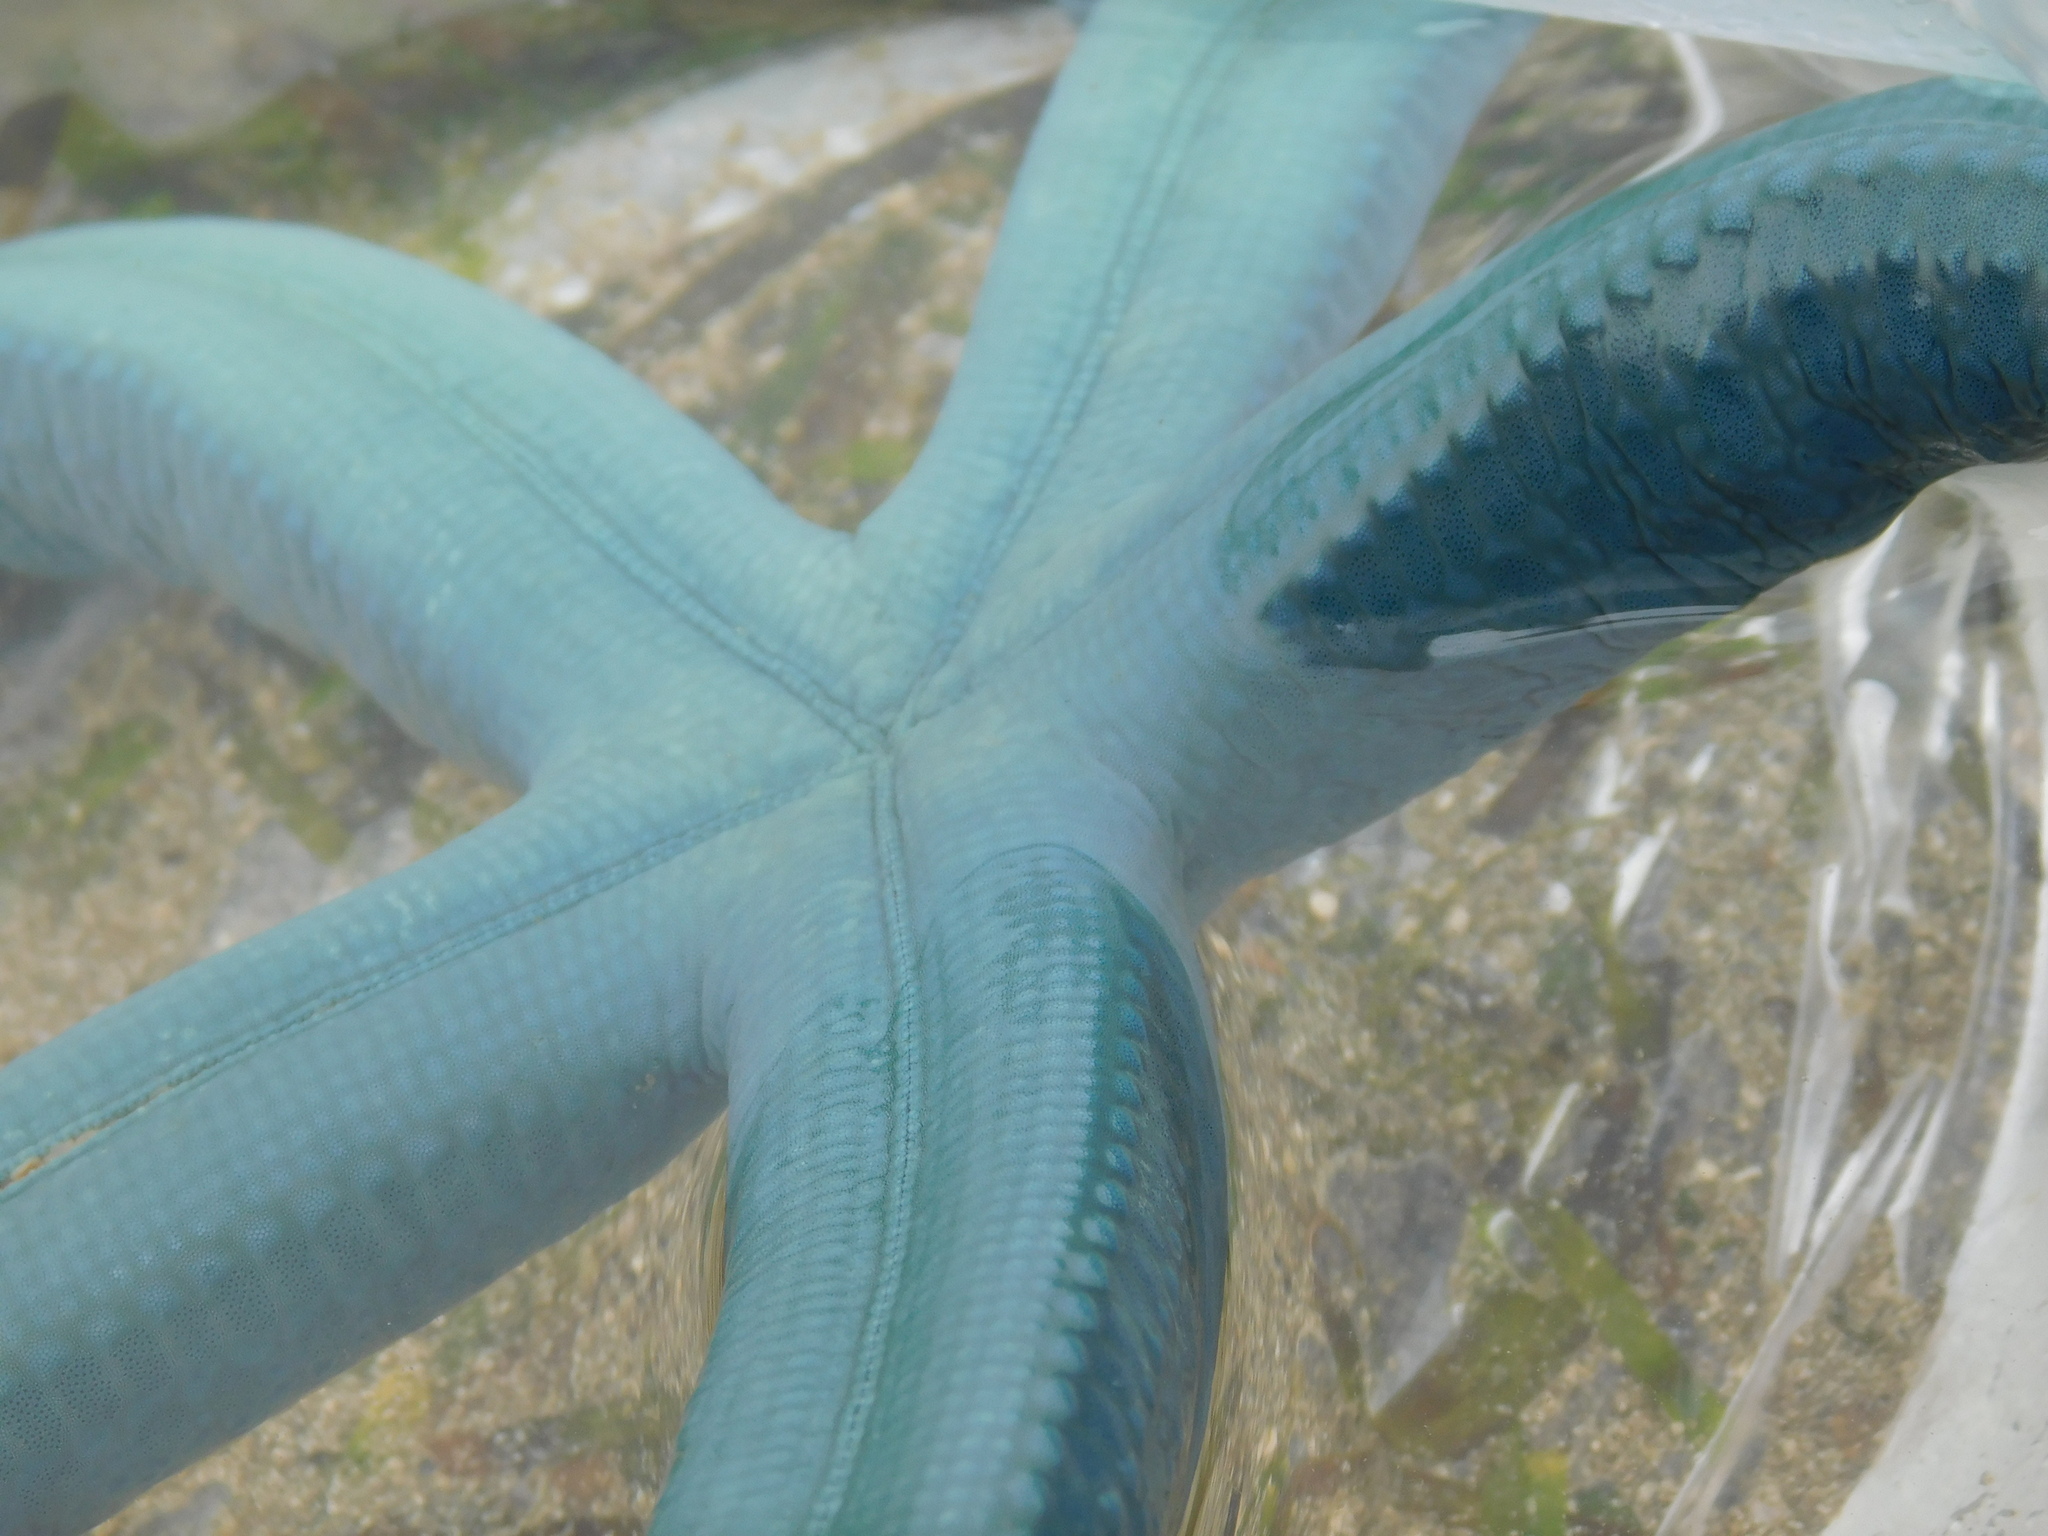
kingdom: Animalia
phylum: Echinodermata
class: Asteroidea
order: Valvatida
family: Ophidiasteridae
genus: Linckia
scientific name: Linckia laevigata
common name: Azure sea star
